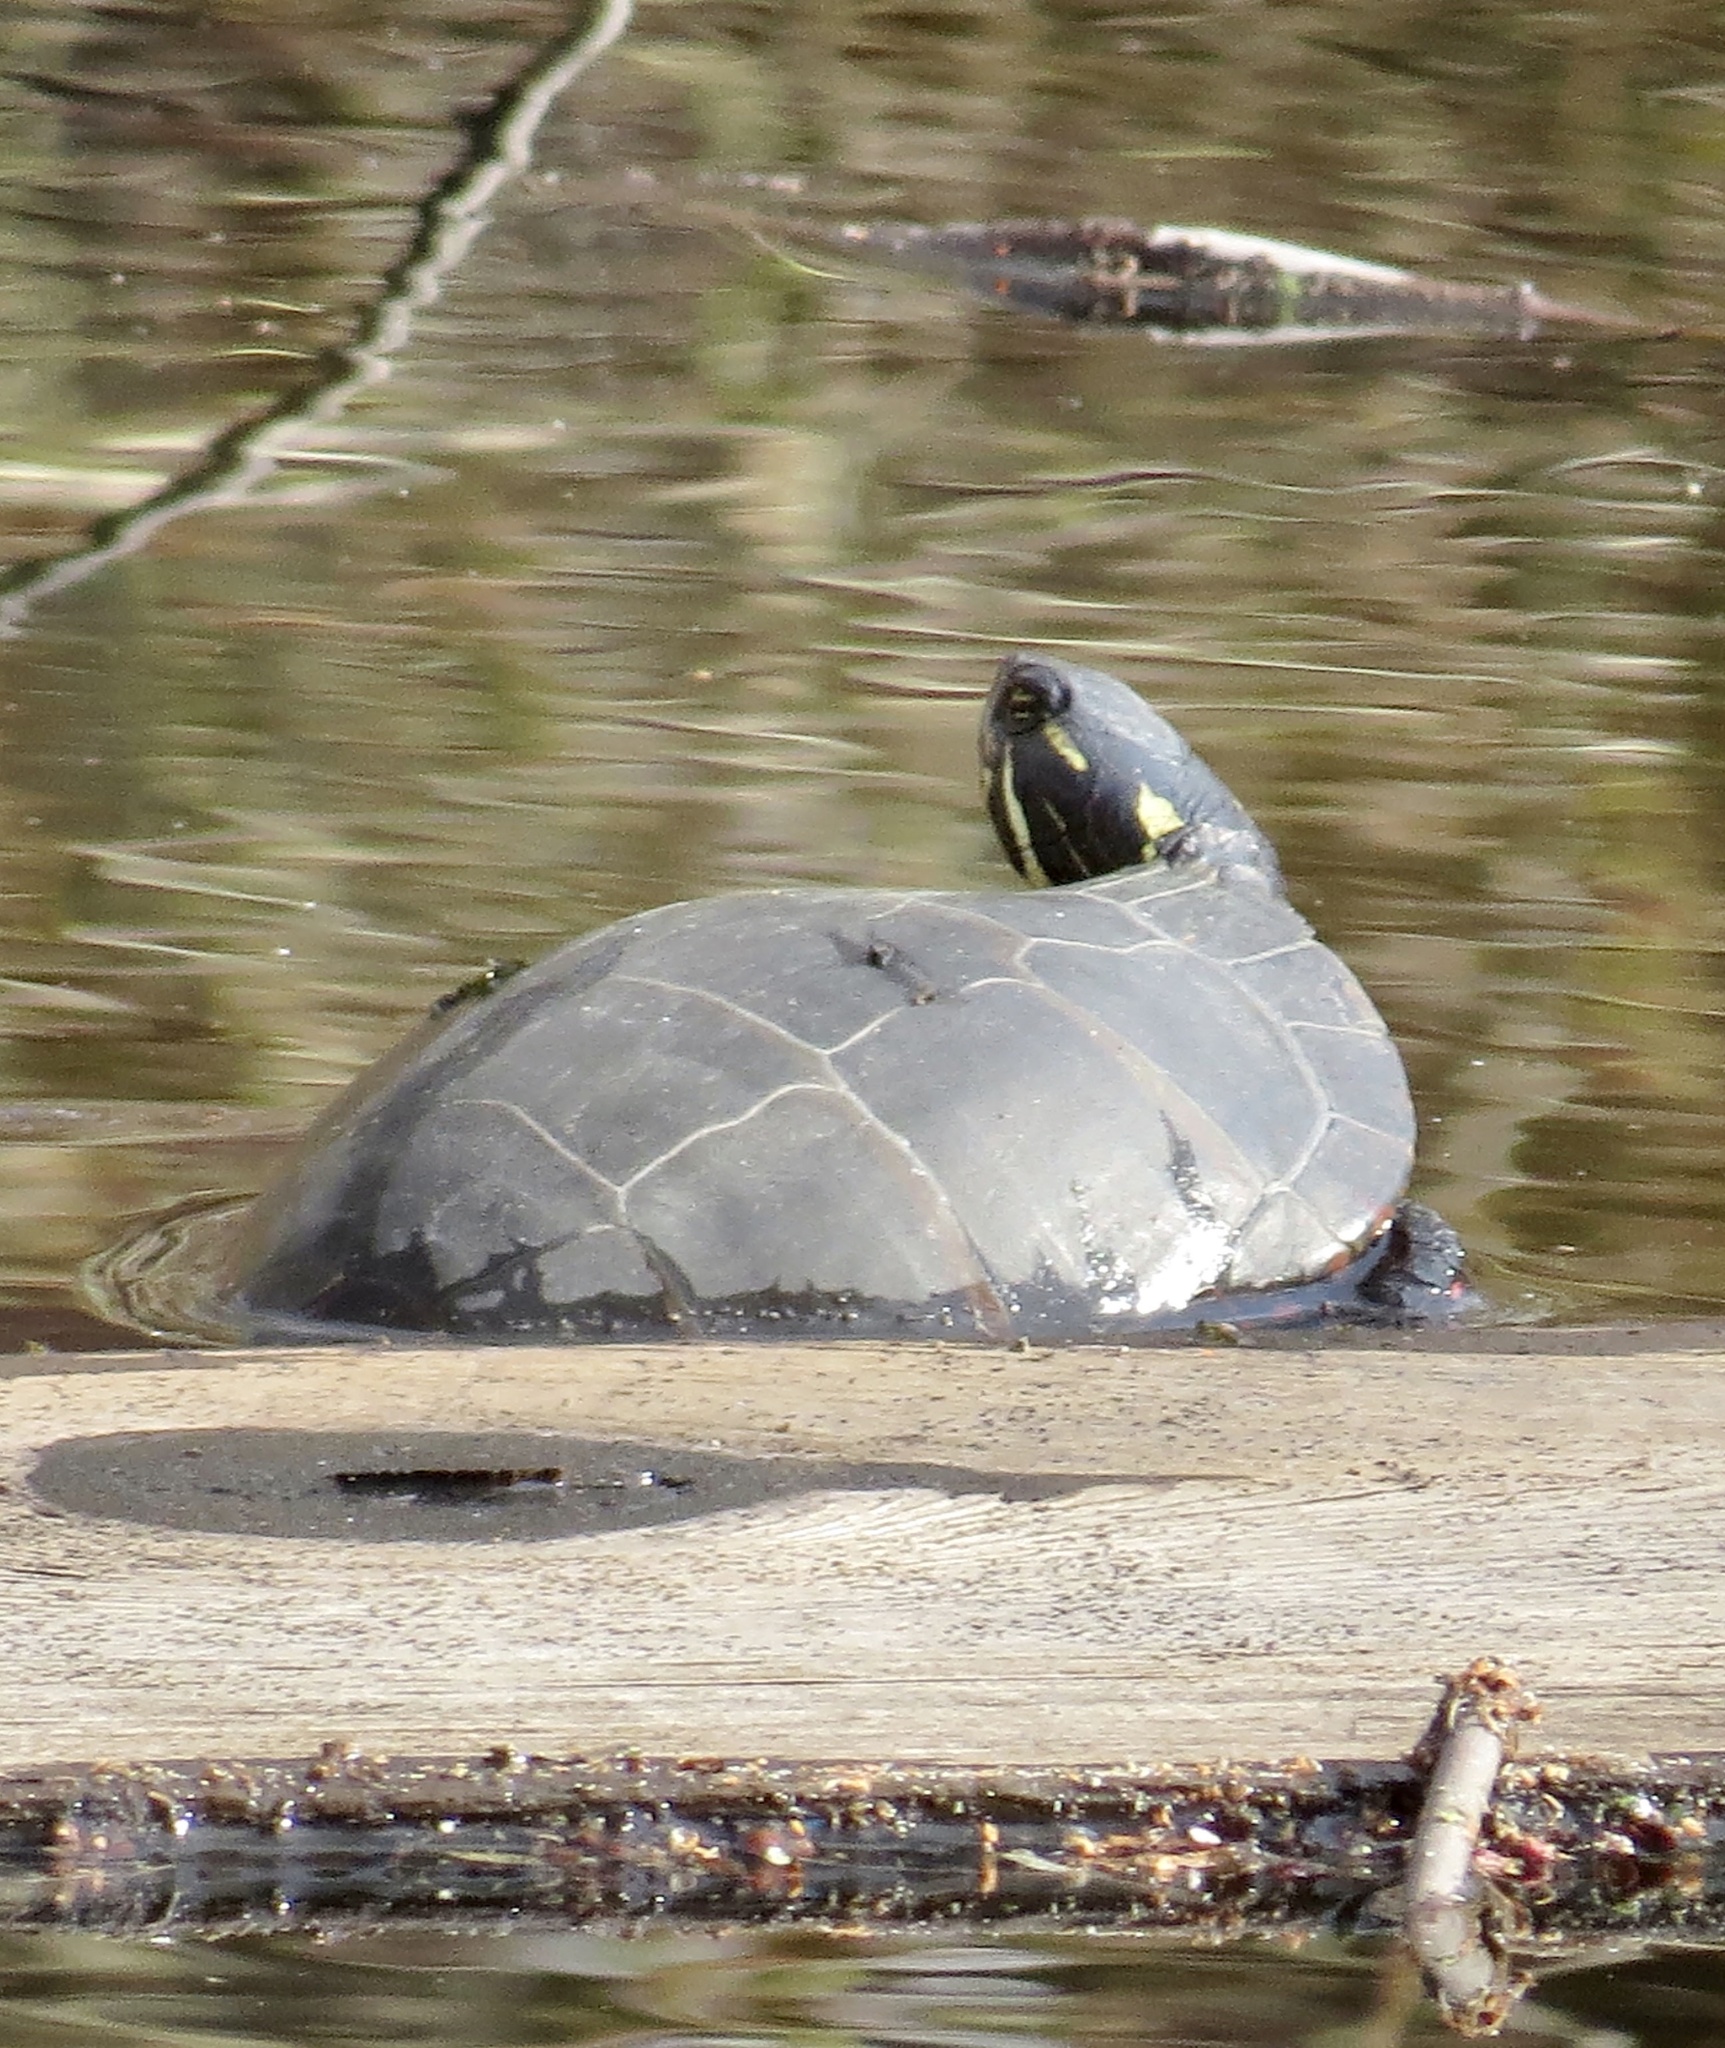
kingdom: Animalia
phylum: Chordata
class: Testudines
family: Emydidae
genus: Chrysemys
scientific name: Chrysemys picta
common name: Painted turtle
